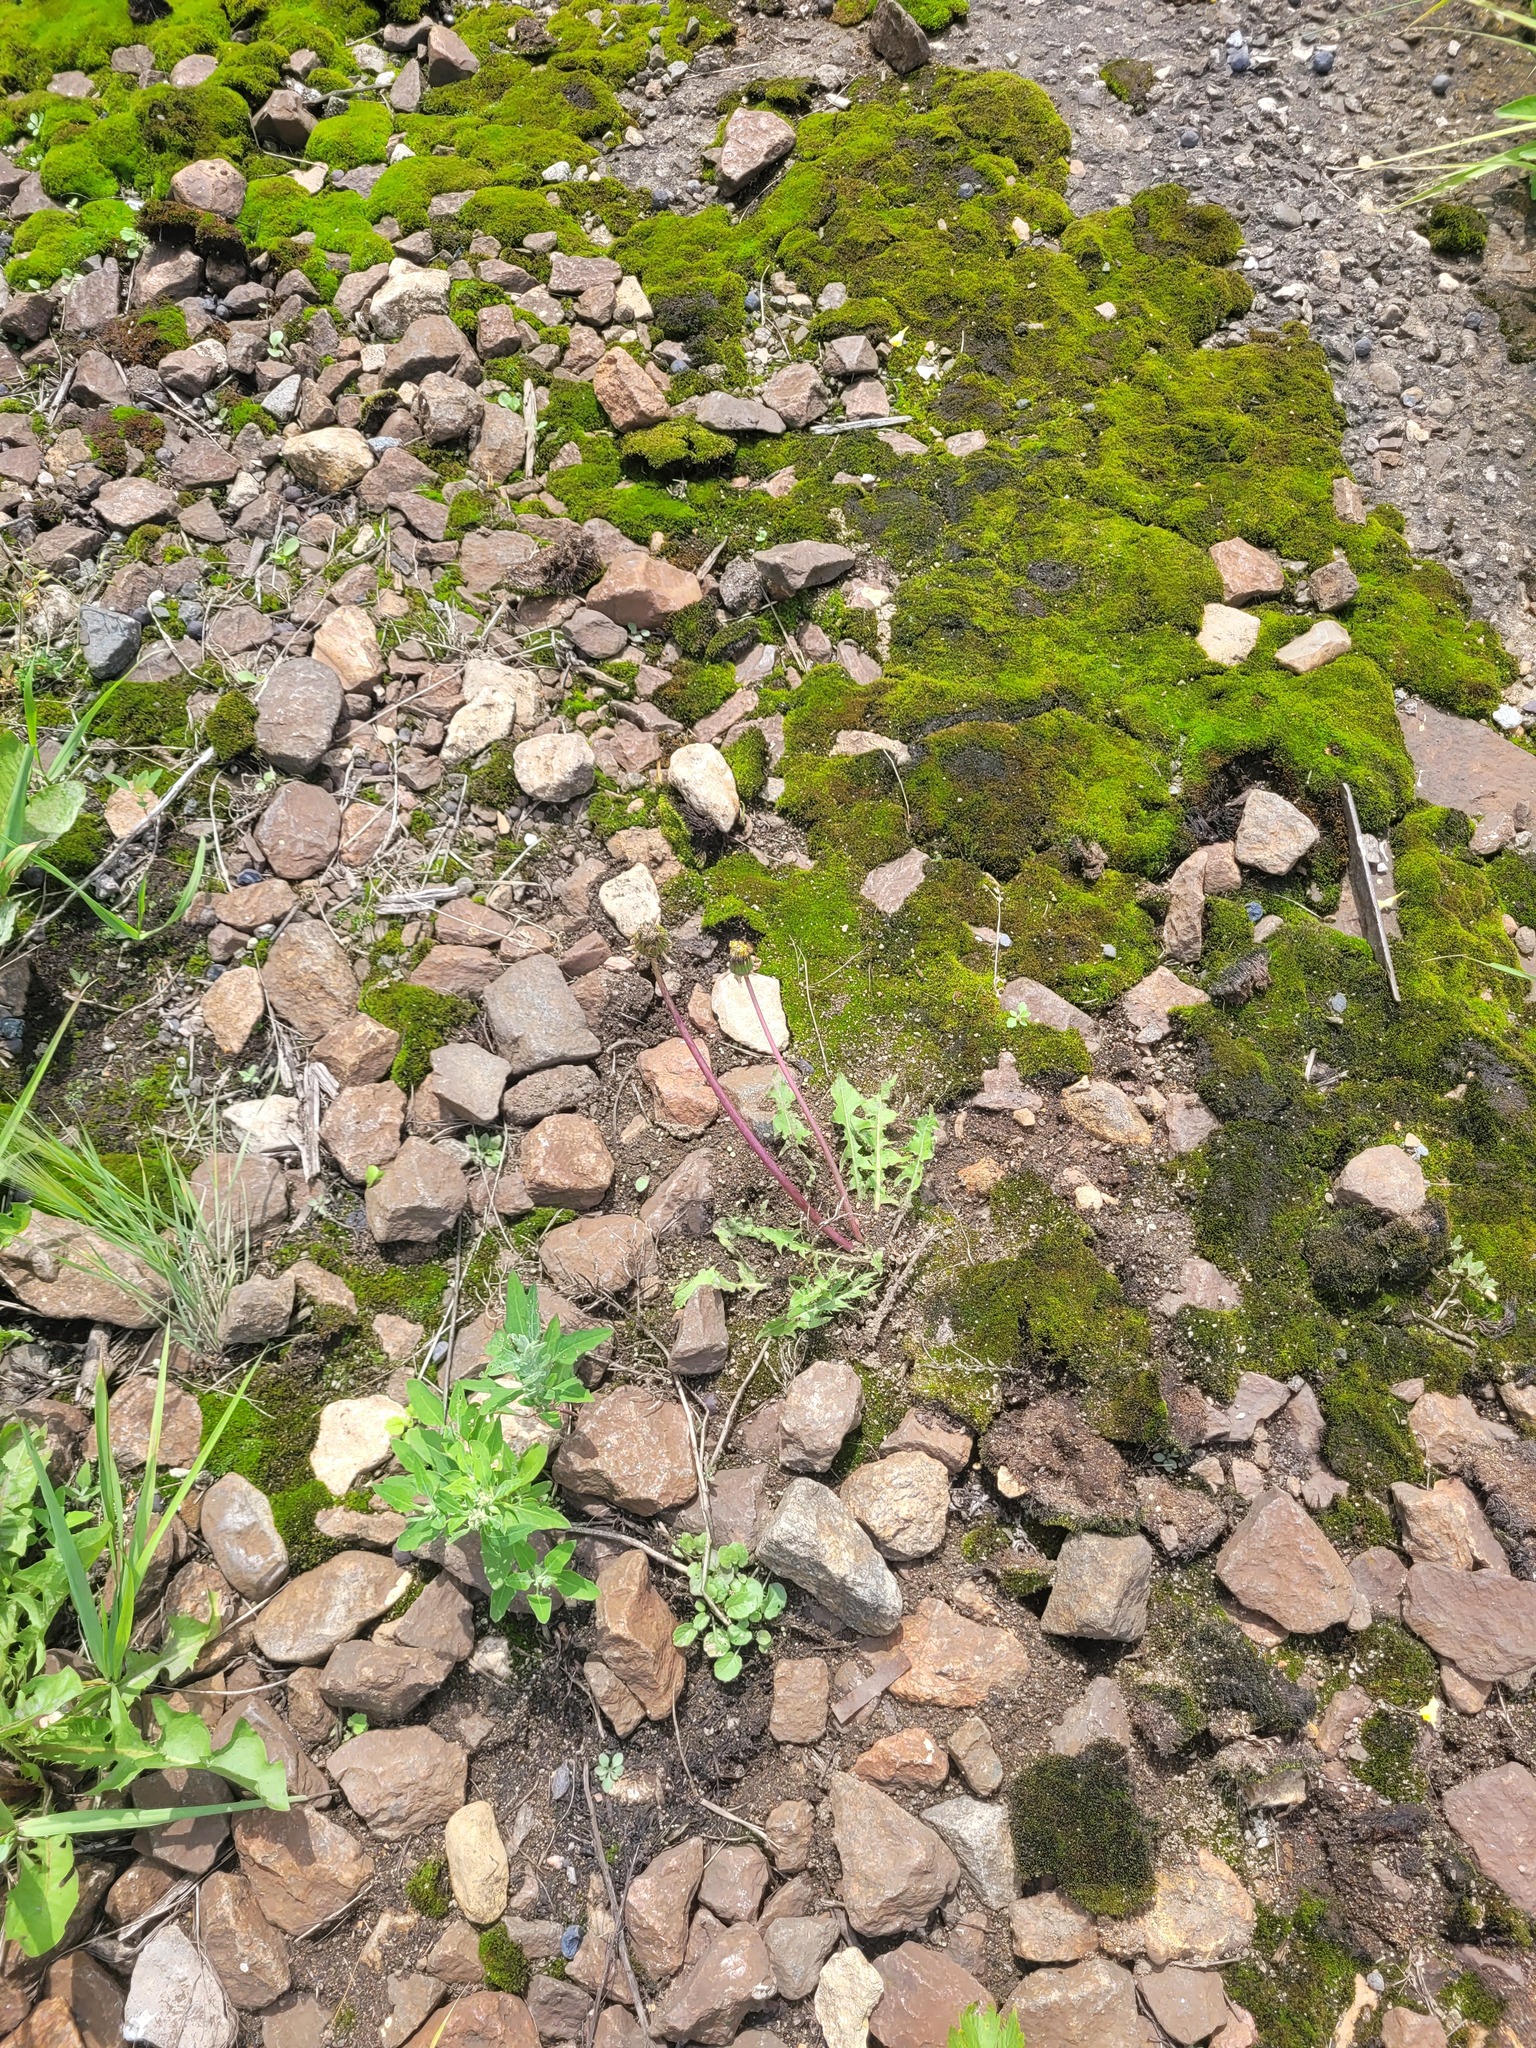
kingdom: Plantae
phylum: Tracheophyta
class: Magnoliopsida
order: Asterales
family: Asteraceae
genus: Taraxacum
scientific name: Taraxacum officinale
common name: Common dandelion
